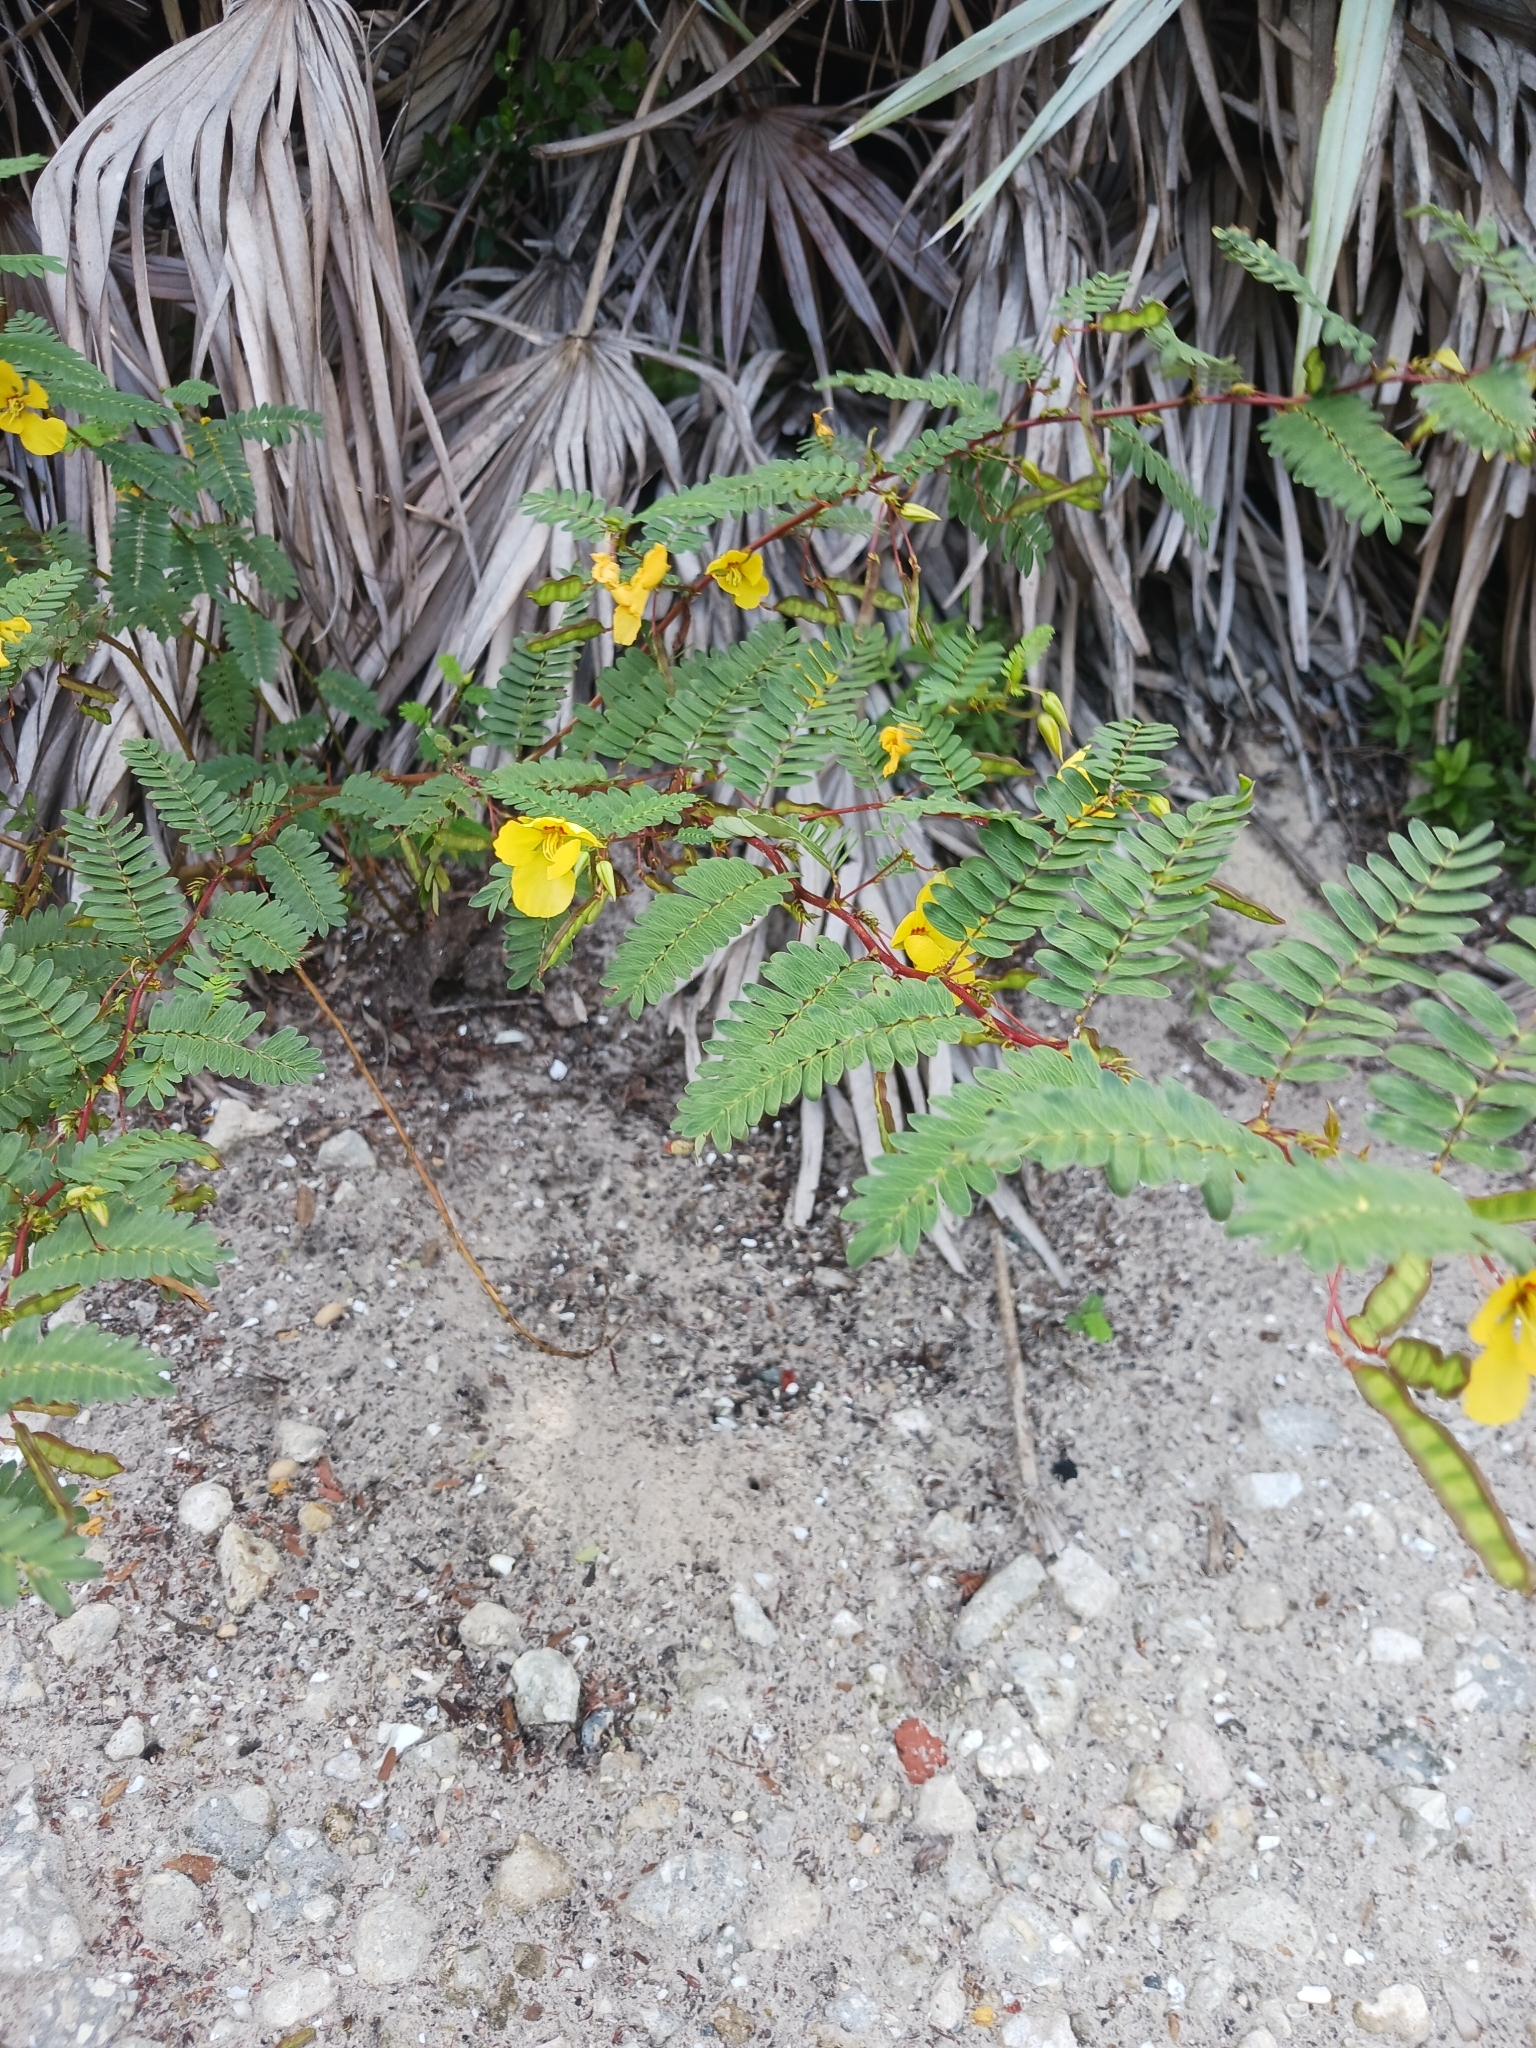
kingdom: Plantae
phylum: Tracheophyta
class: Magnoliopsida
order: Fabales
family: Fabaceae
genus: Chamaecrista
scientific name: Chamaecrista fasciculata
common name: Golden cassia
